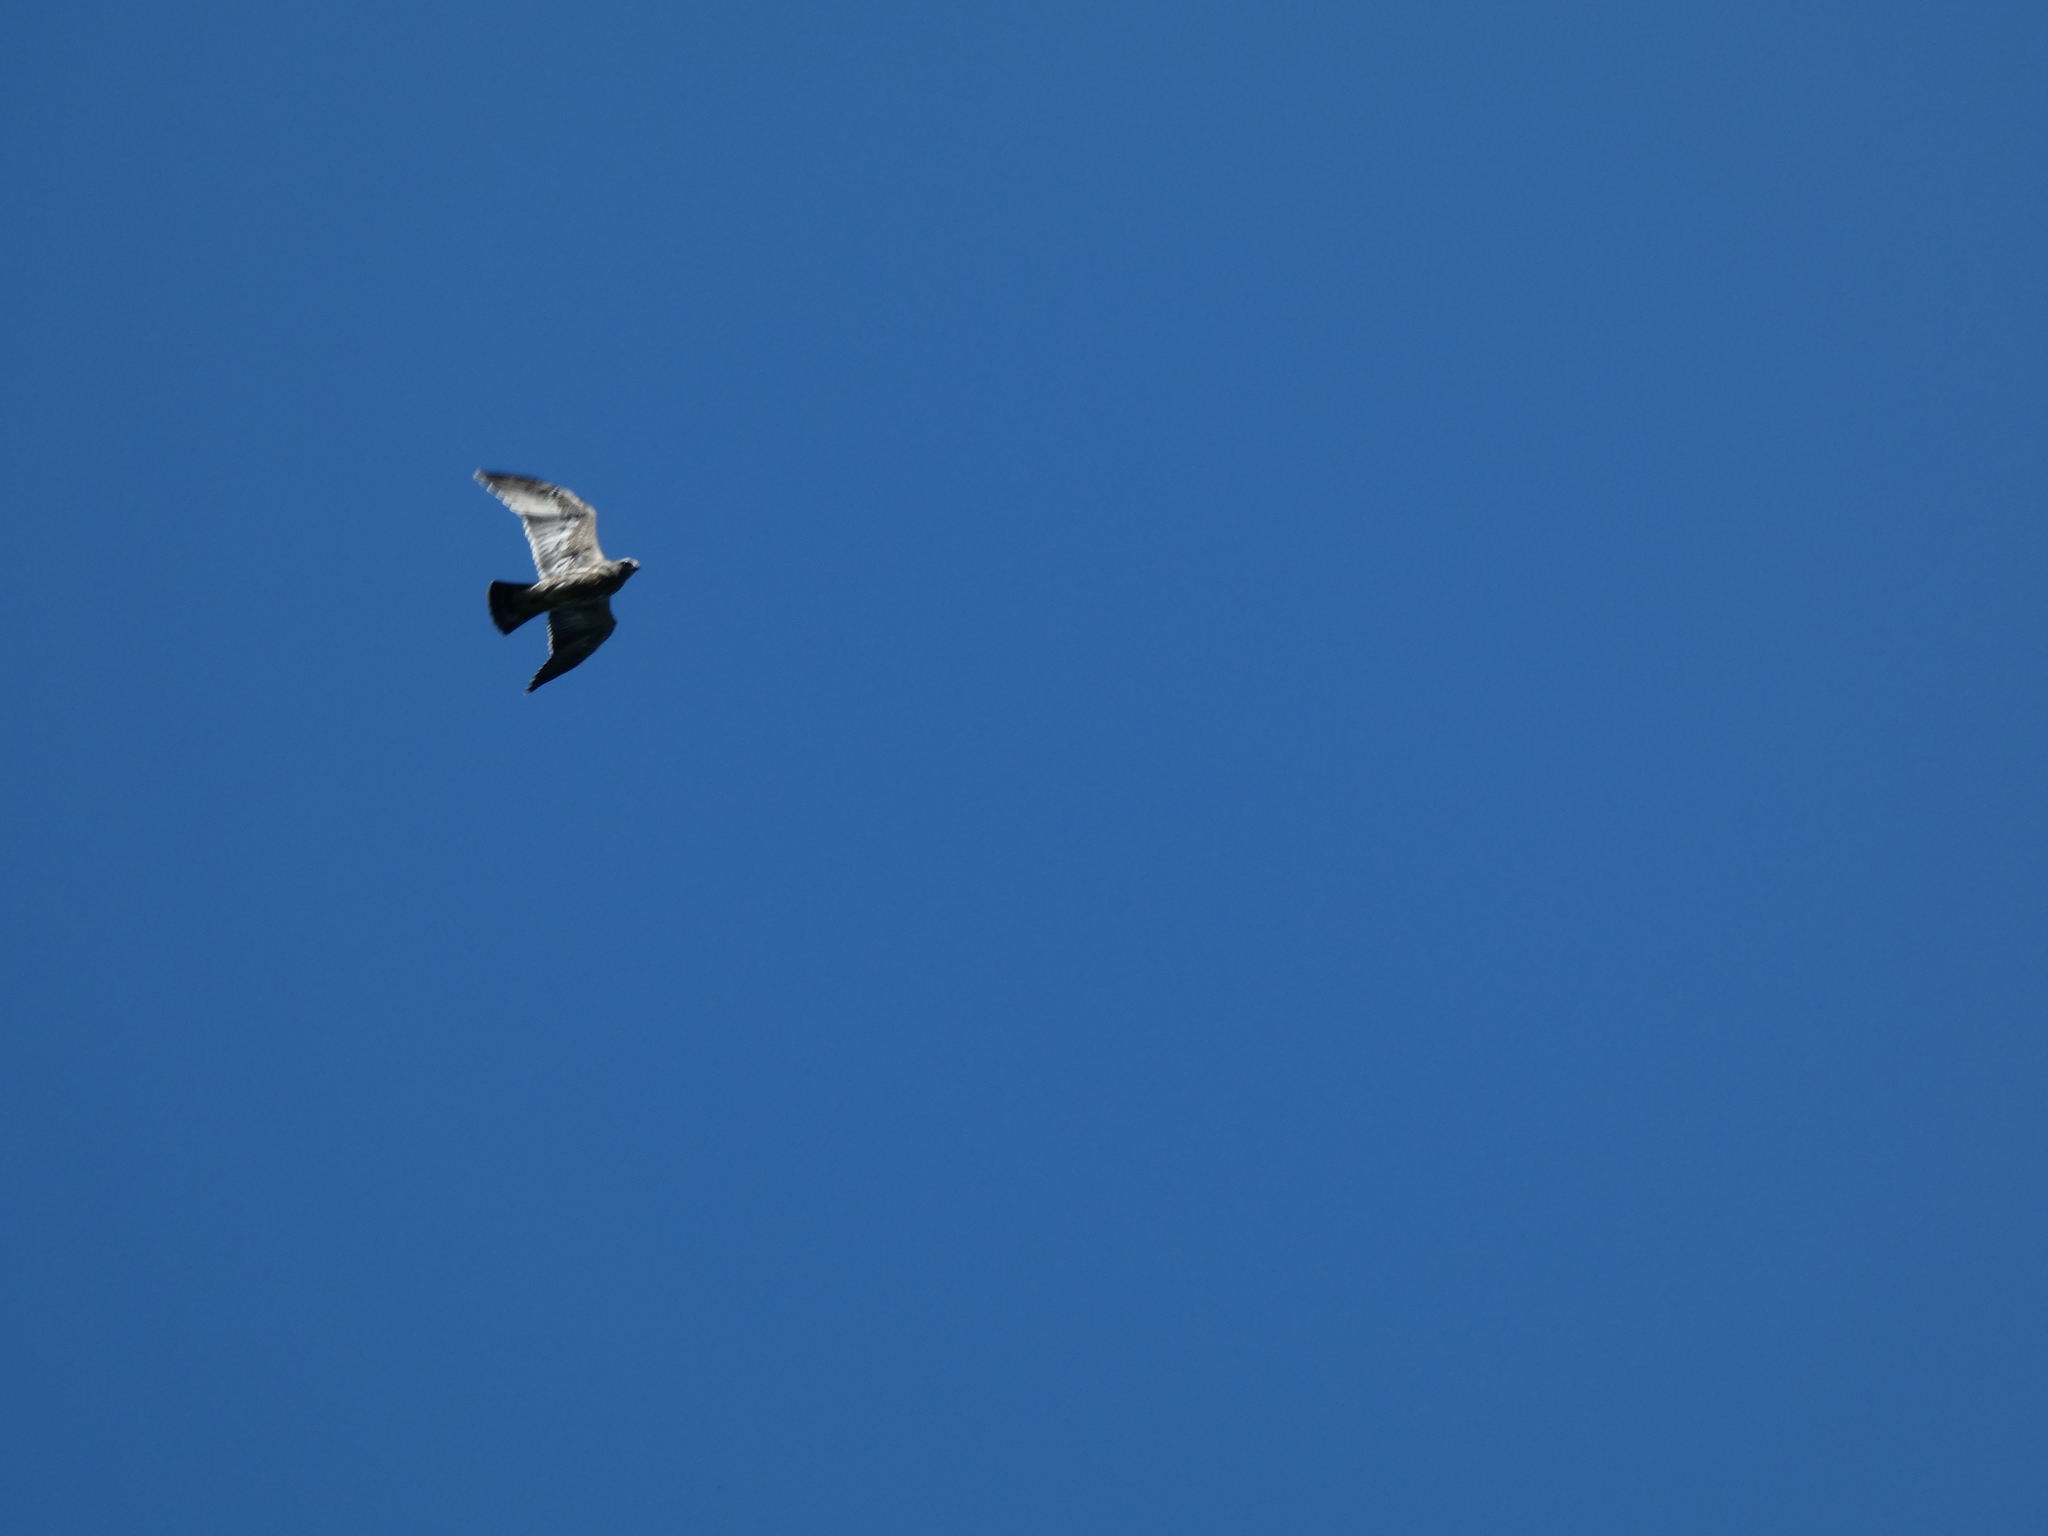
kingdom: Animalia
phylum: Chordata
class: Aves
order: Accipitriformes
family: Accipitridae
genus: Ictinia
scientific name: Ictinia mississippiensis
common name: Mississippi kite
